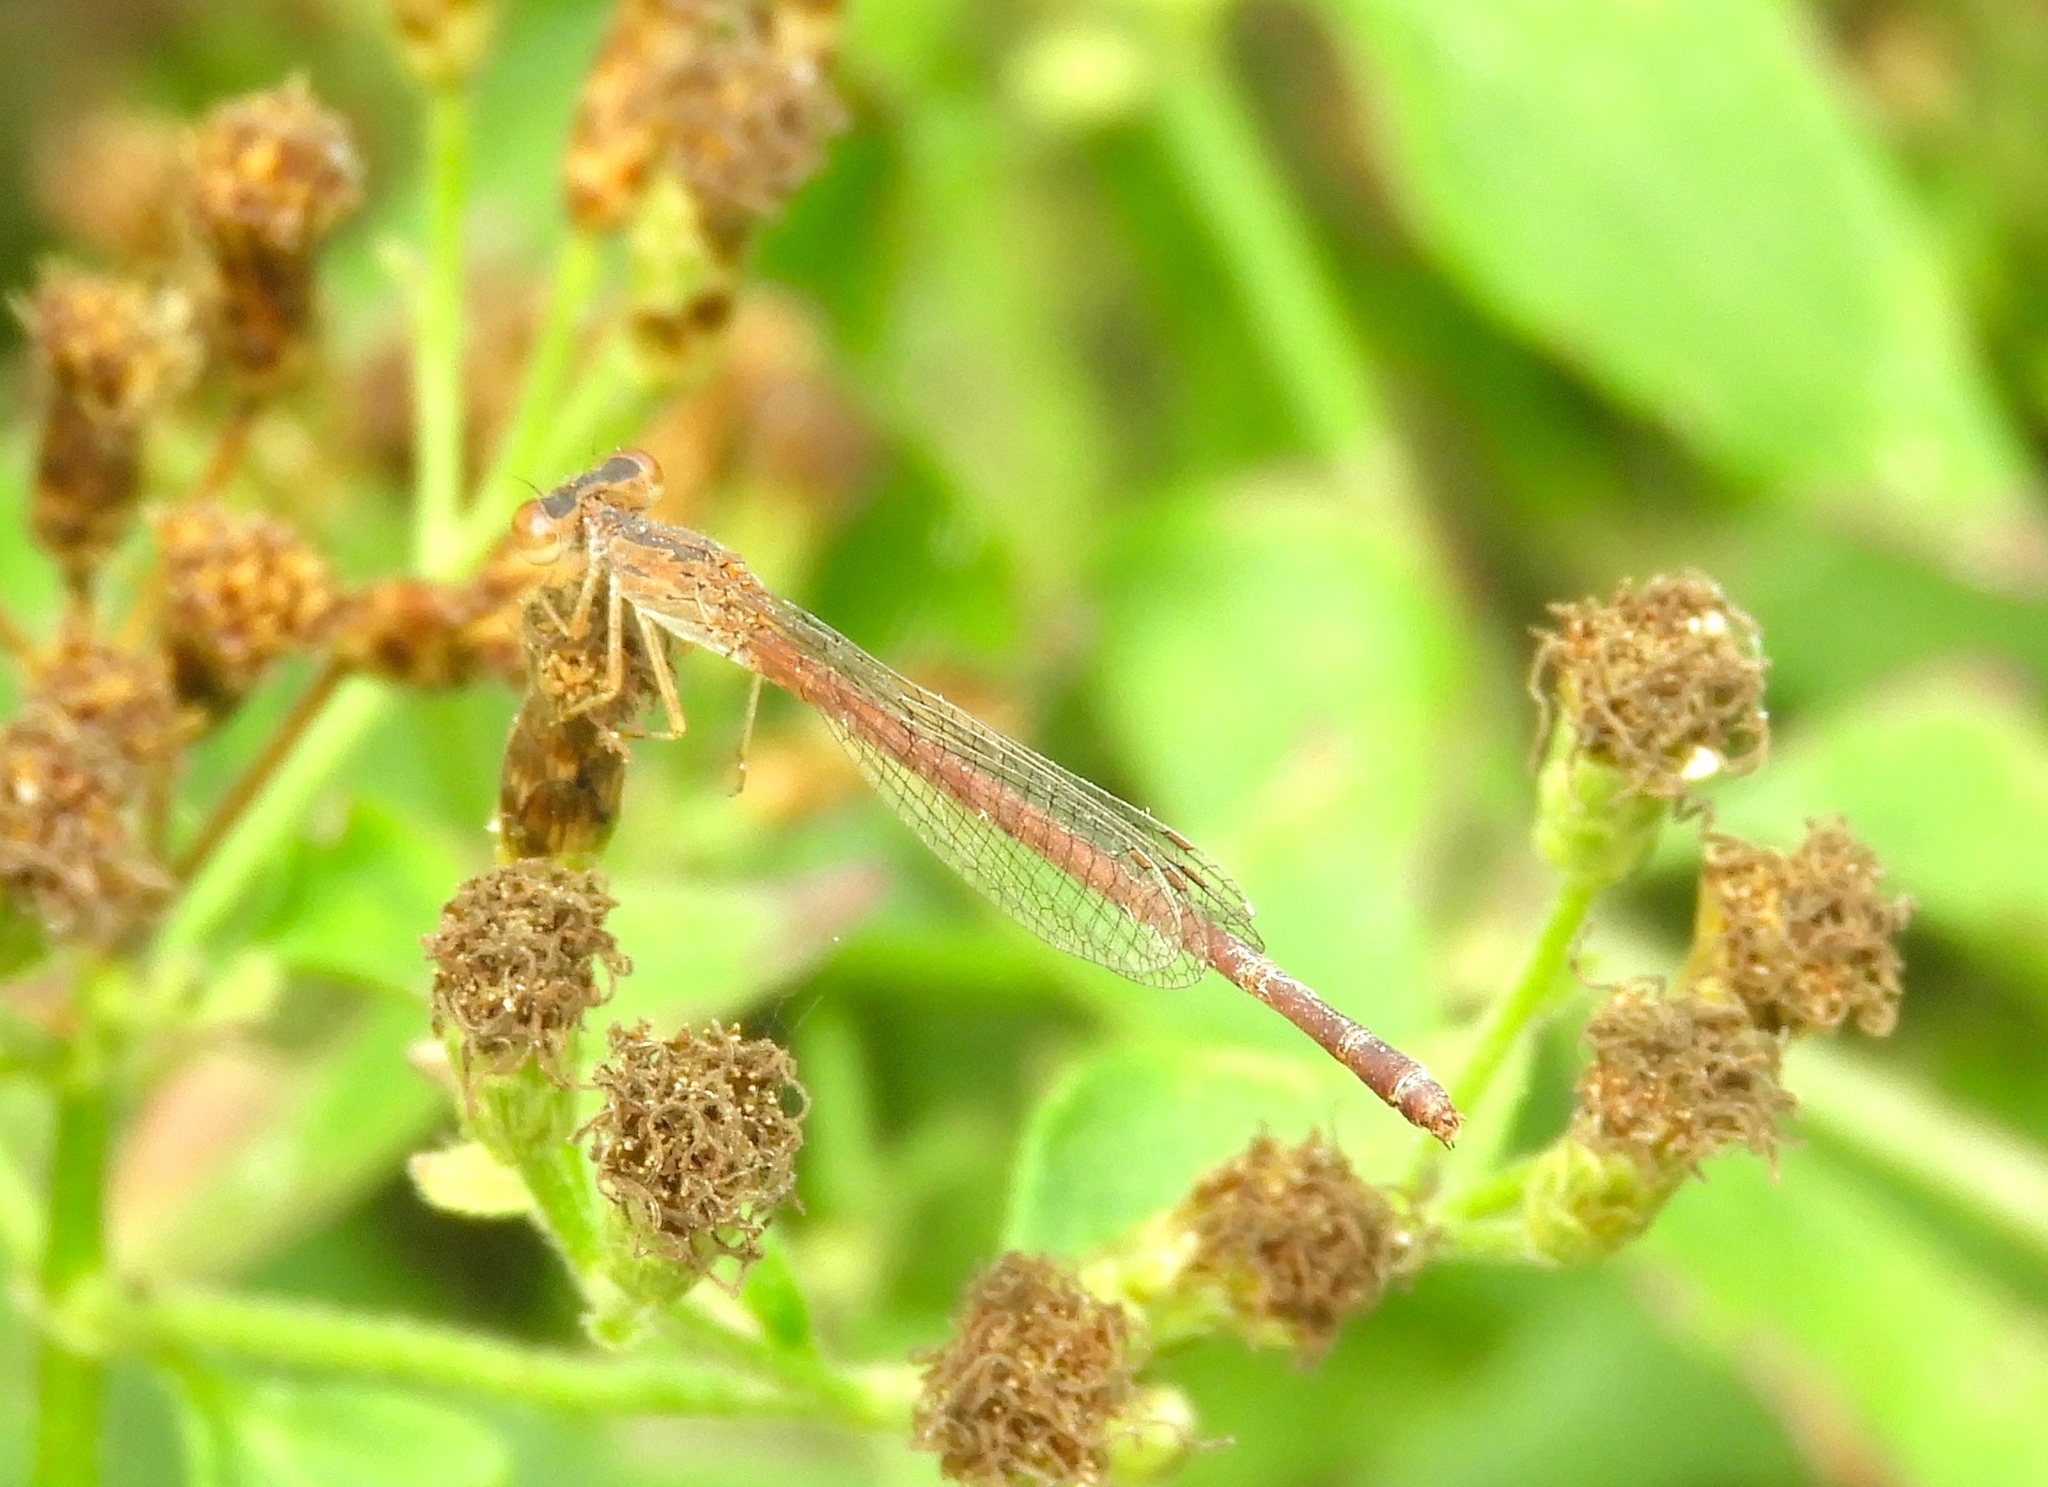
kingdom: Animalia
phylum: Arthropoda
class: Insecta
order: Odonata
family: Coenagrionidae
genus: Telebasis
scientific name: Telebasis salva
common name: Desert firetail
